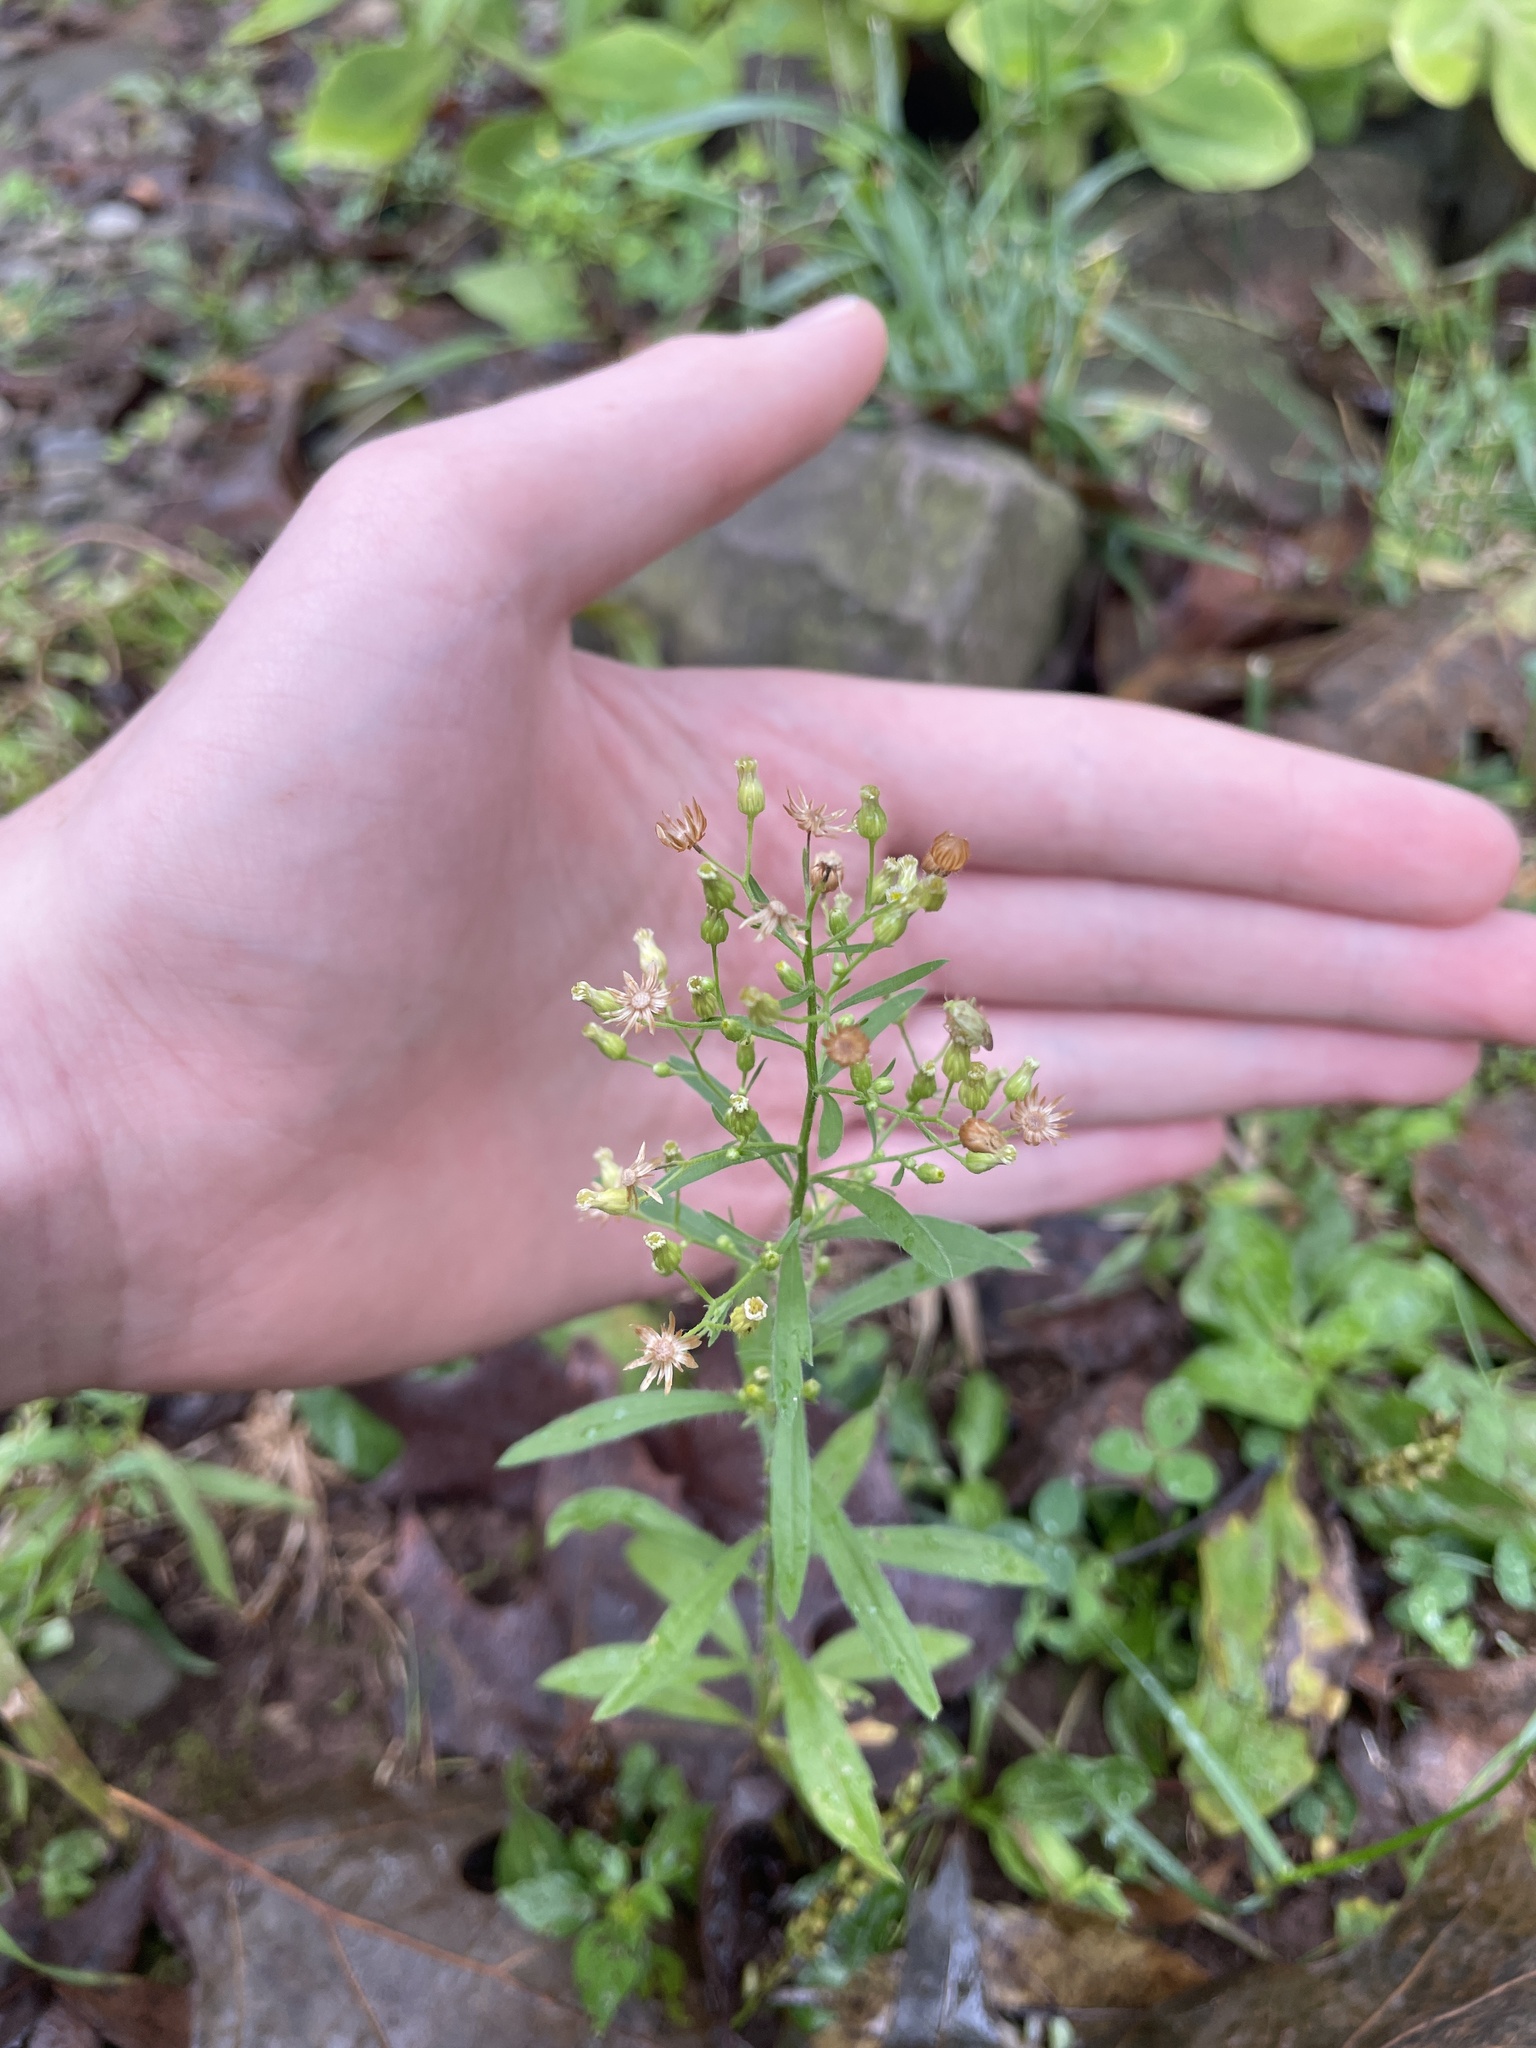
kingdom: Plantae
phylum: Tracheophyta
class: Magnoliopsida
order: Asterales
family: Asteraceae
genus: Erigeron
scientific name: Erigeron canadensis
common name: Canadian fleabane
